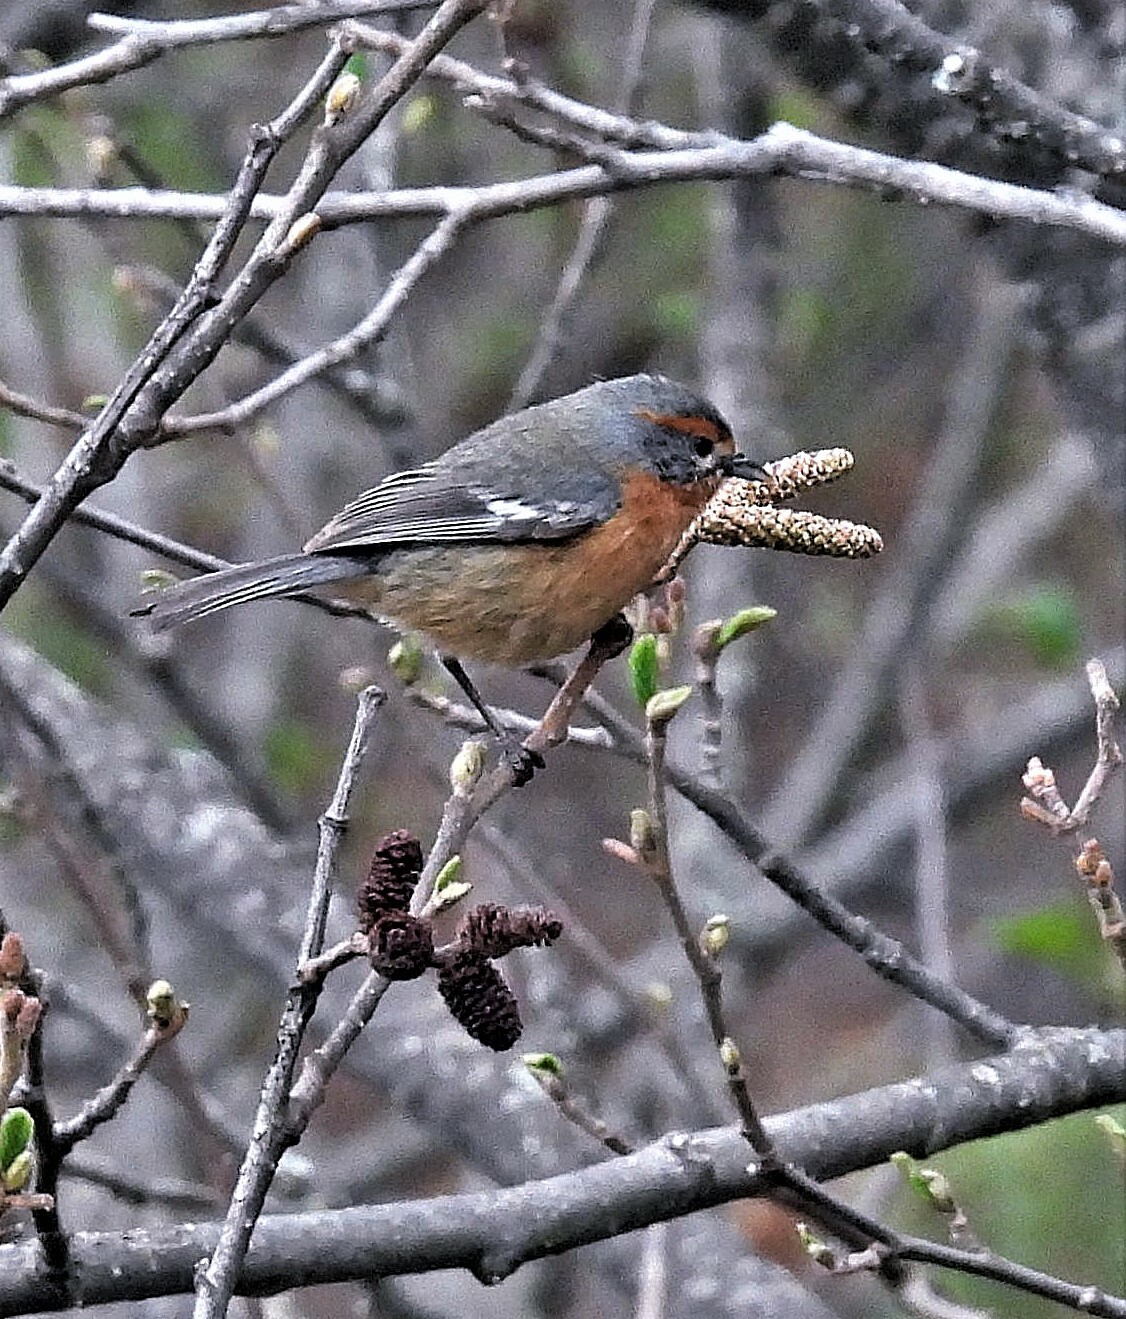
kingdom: Animalia
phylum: Chordata
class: Aves
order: Passeriformes
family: Thraupidae
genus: Microspingus
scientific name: Microspingus erythrophrys
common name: Rusty-browed warbling-finch
